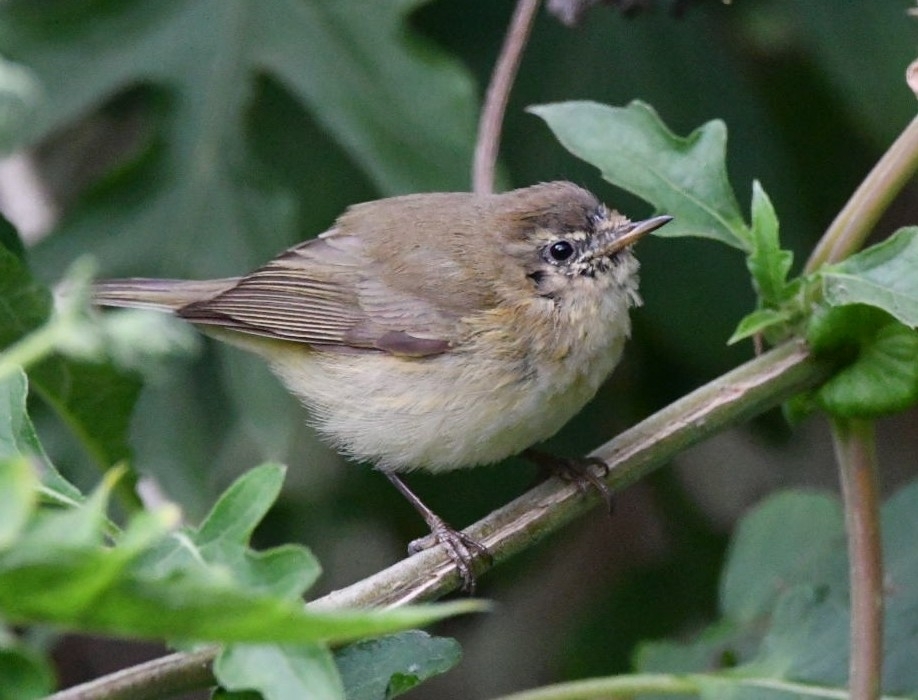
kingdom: Animalia
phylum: Chordata
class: Aves
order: Passeriformes
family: Phylloscopidae
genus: Phylloscopus
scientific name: Phylloscopus collybita
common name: Common chiffchaff
